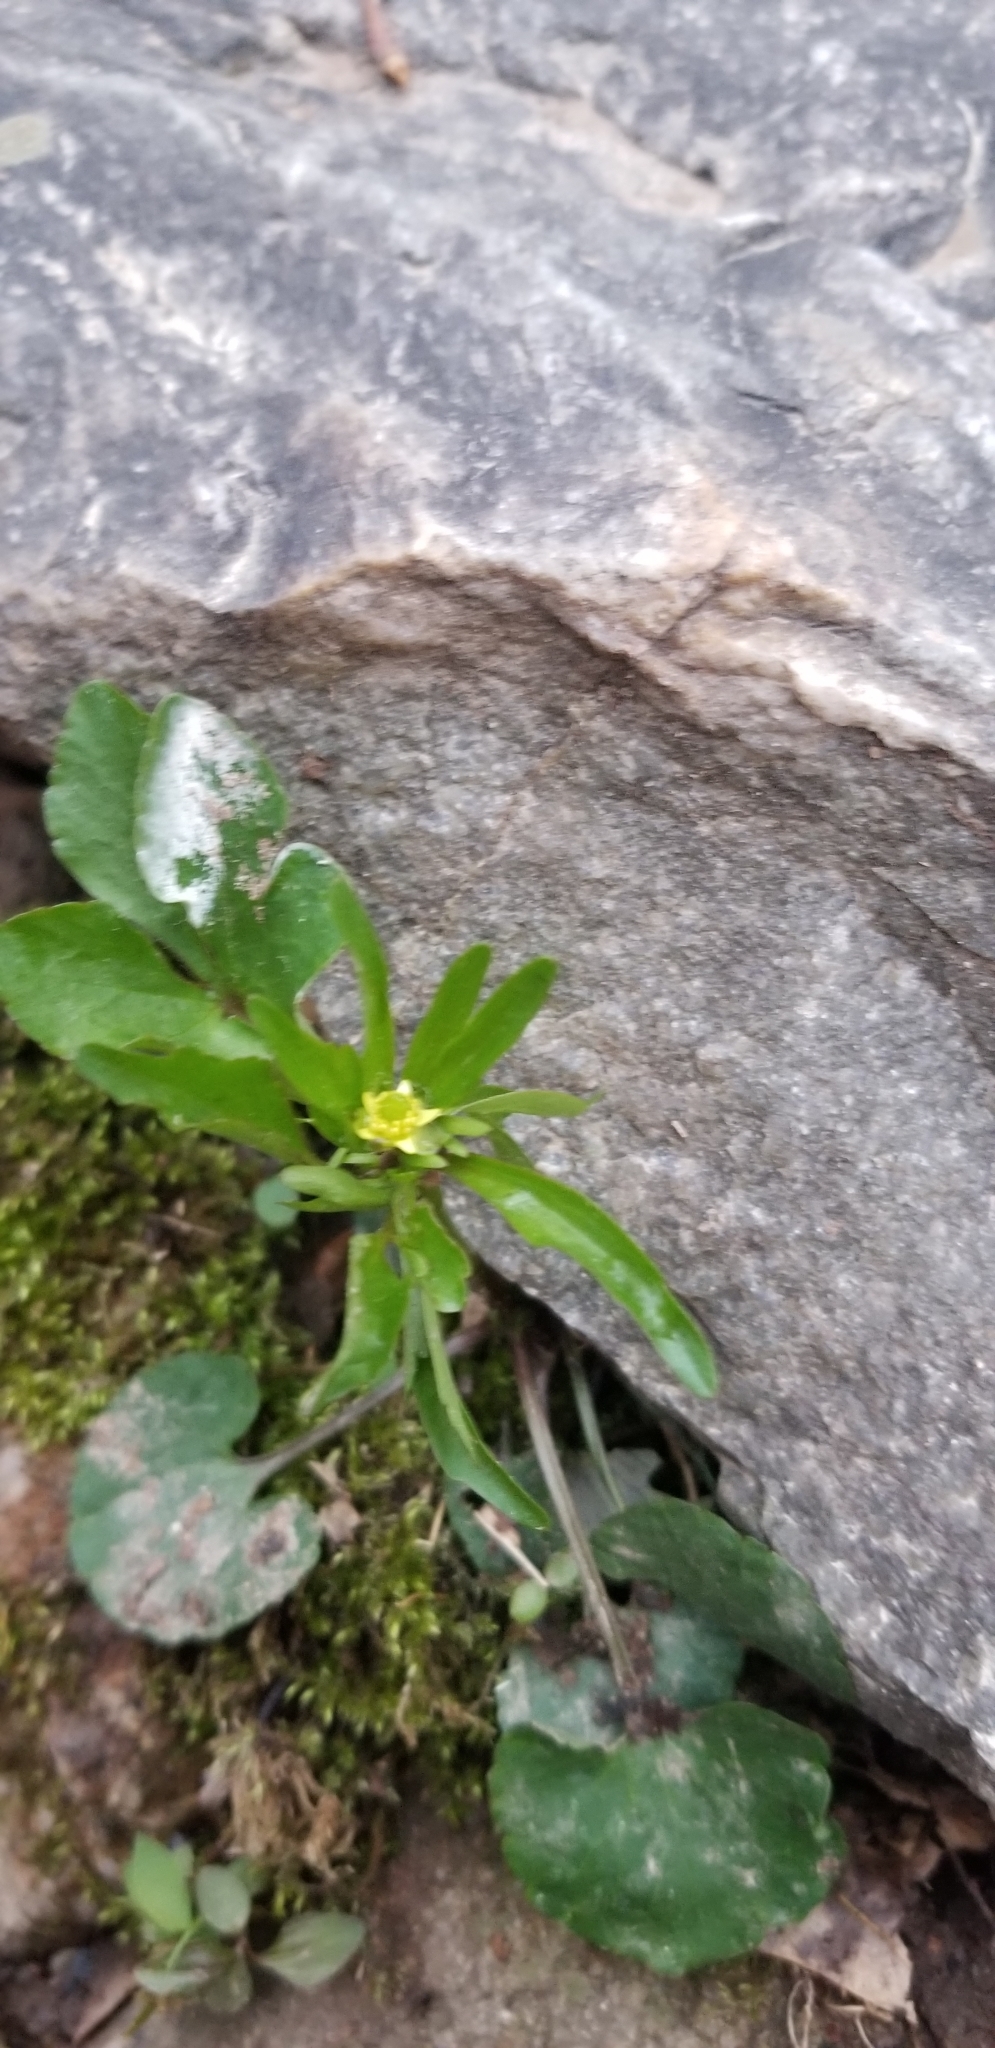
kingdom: Plantae
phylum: Tracheophyta
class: Magnoliopsida
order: Ranunculales
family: Ranunculaceae
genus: Ranunculus
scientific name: Ranunculus abortivus
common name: Early wood buttercup
